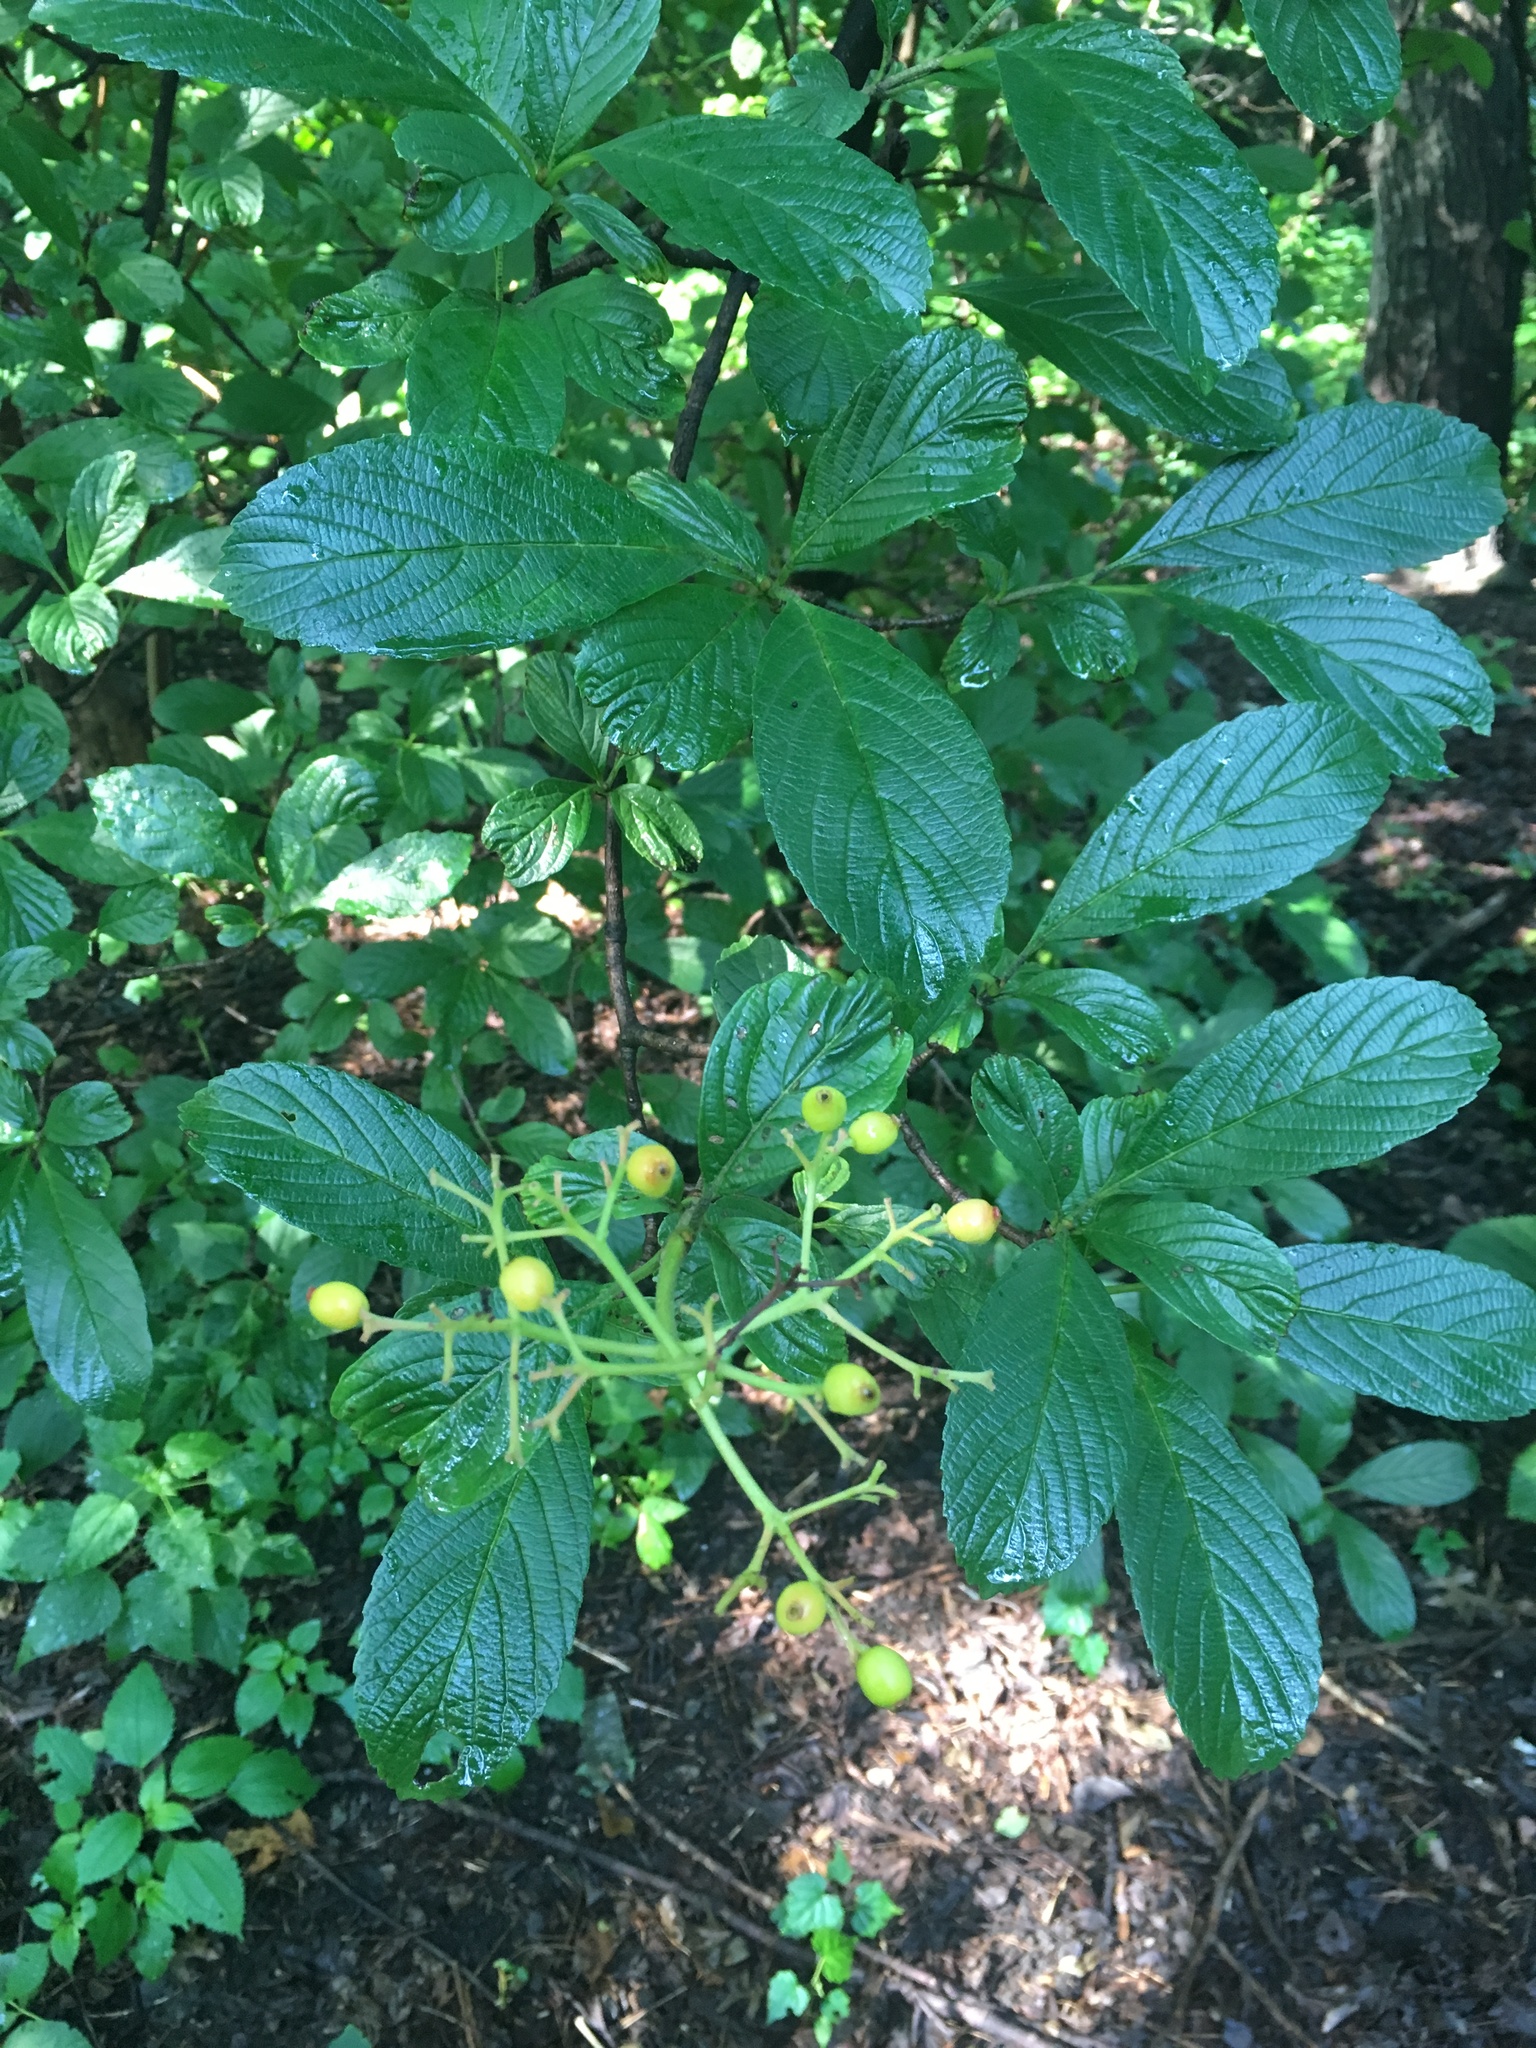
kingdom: Plantae
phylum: Tracheophyta
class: Magnoliopsida
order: Dipsacales
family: Viburnaceae
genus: Viburnum
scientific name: Viburnum sieboldii
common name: Siebold's arrowwood
